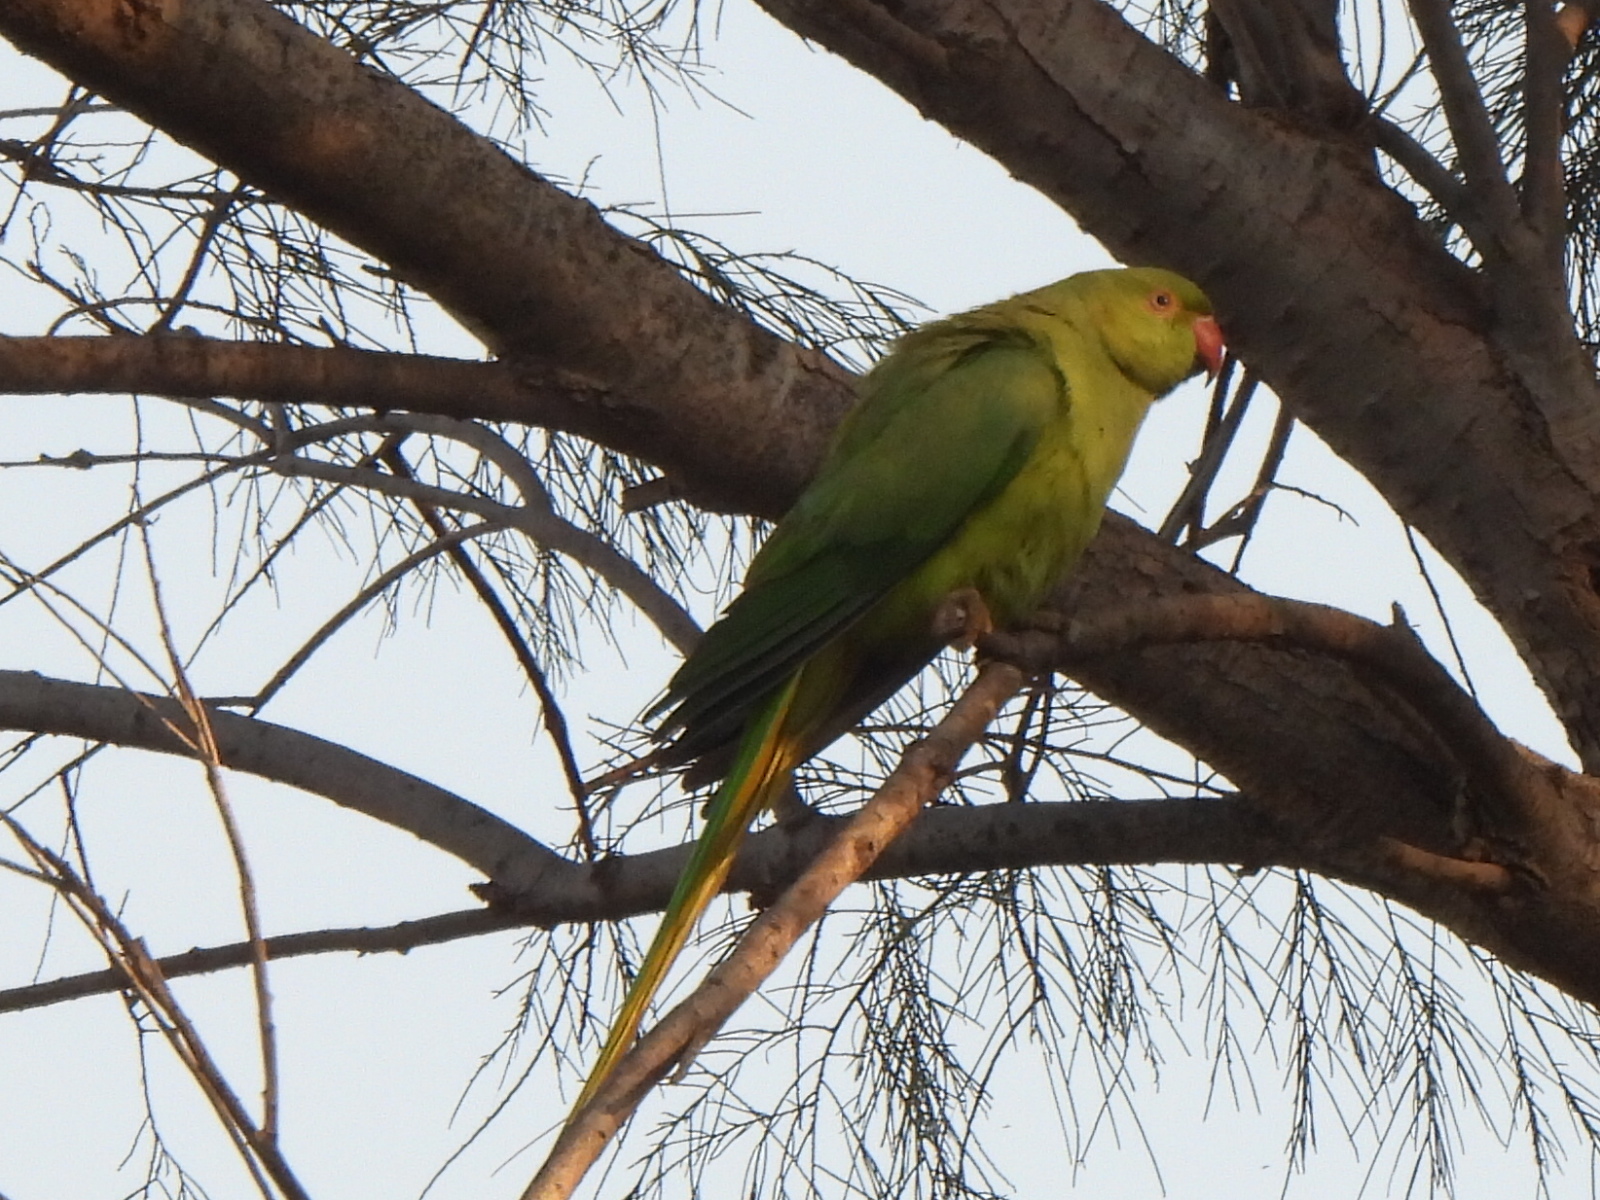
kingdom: Animalia
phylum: Chordata
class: Aves
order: Psittaciformes
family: Psittacidae
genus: Psittacula
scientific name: Psittacula krameri
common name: Rose-ringed parakeet
